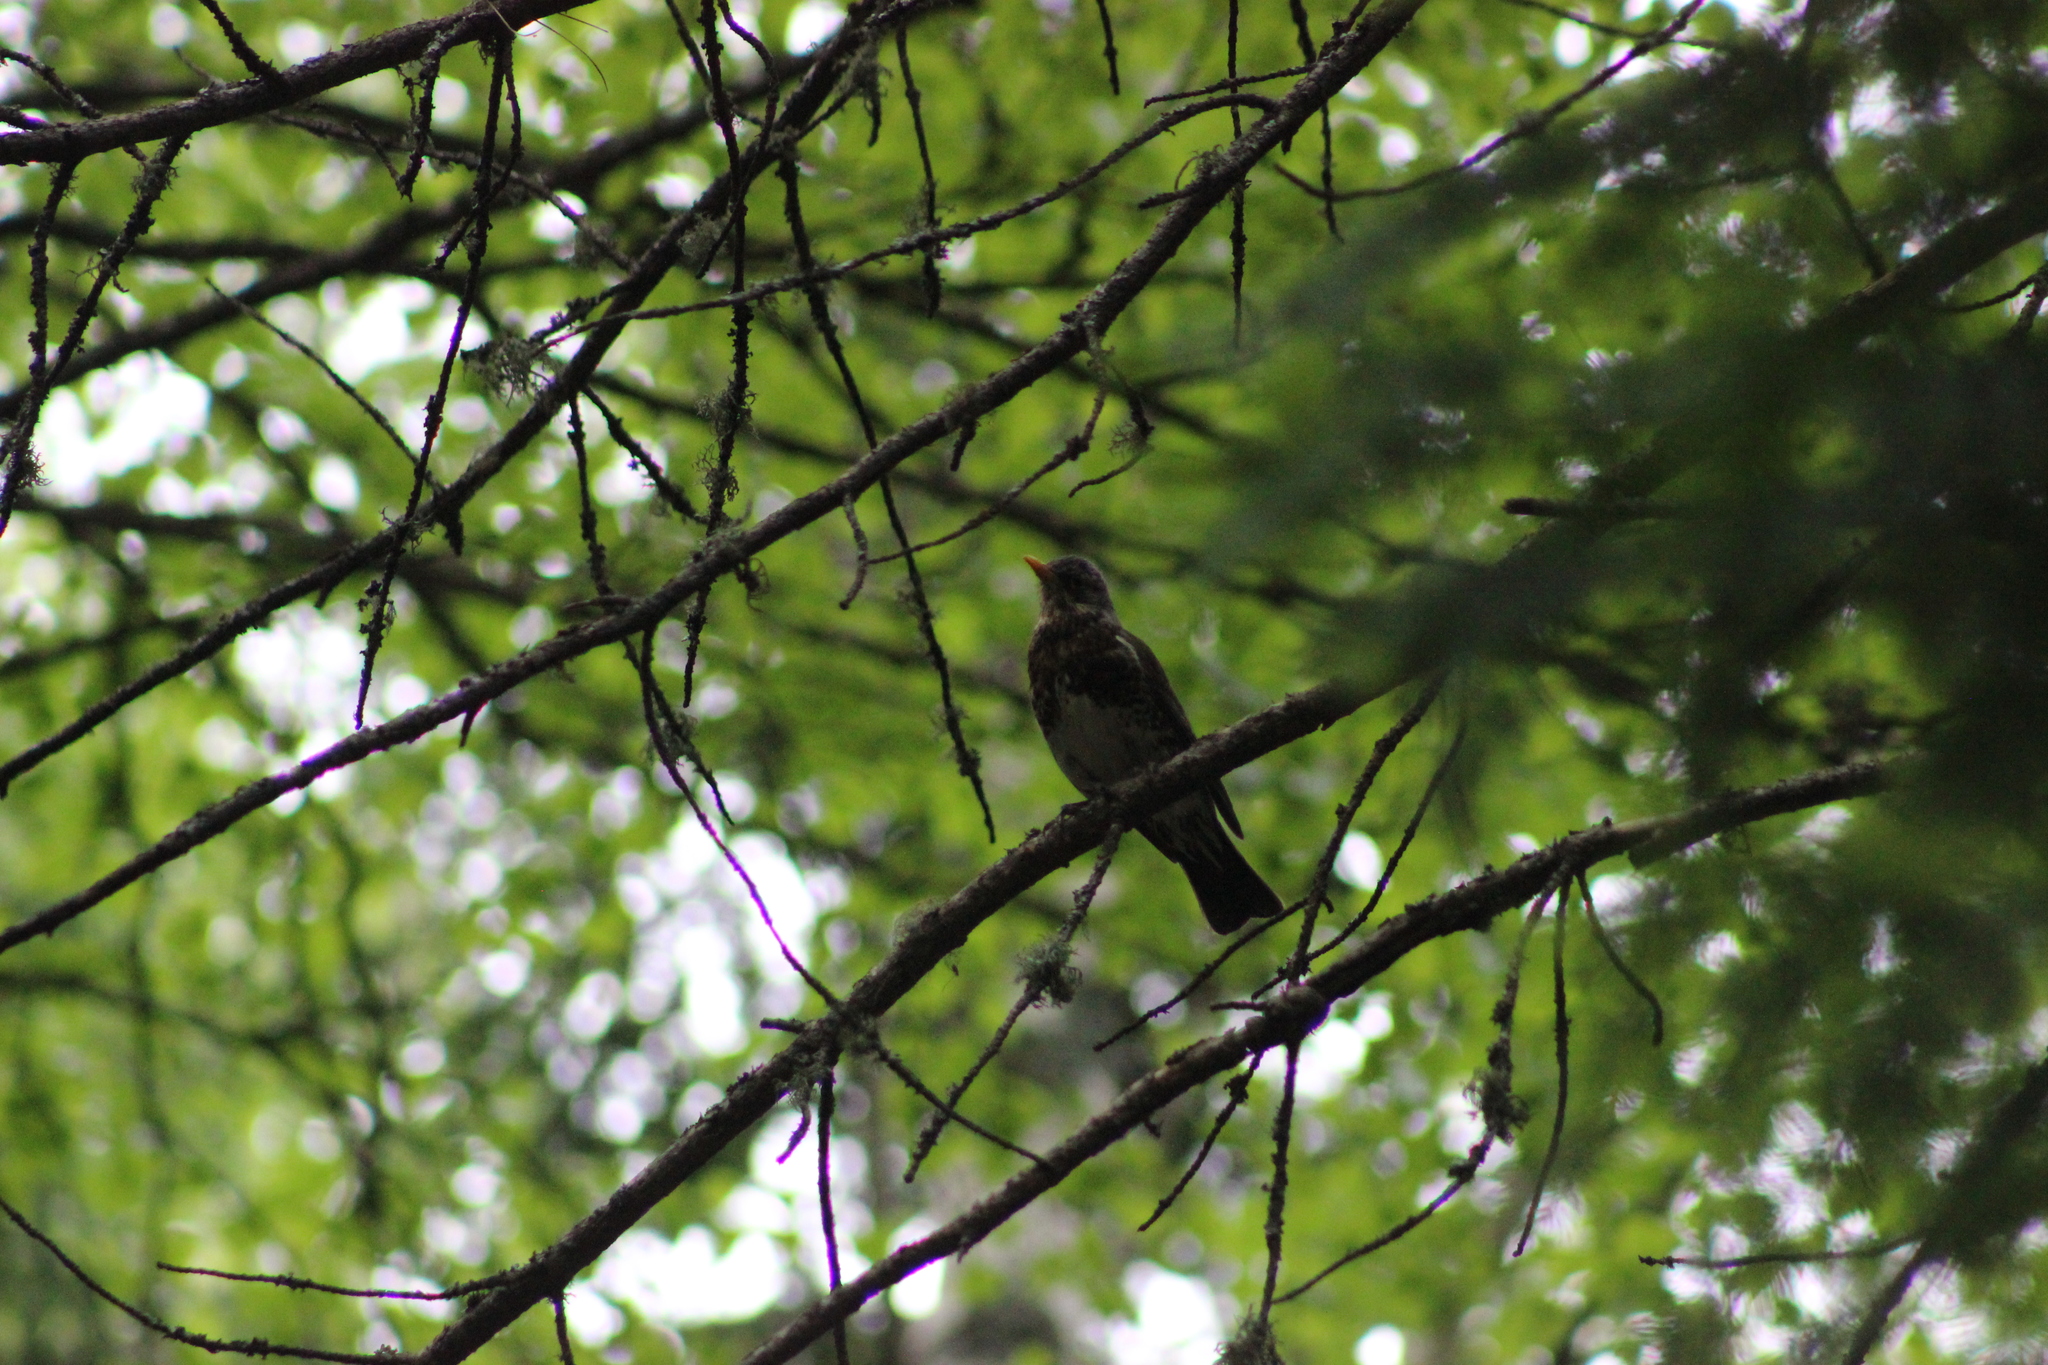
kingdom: Animalia
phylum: Chordata
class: Aves
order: Passeriformes
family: Turdidae
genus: Turdus
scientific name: Turdus pilaris
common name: Fieldfare
